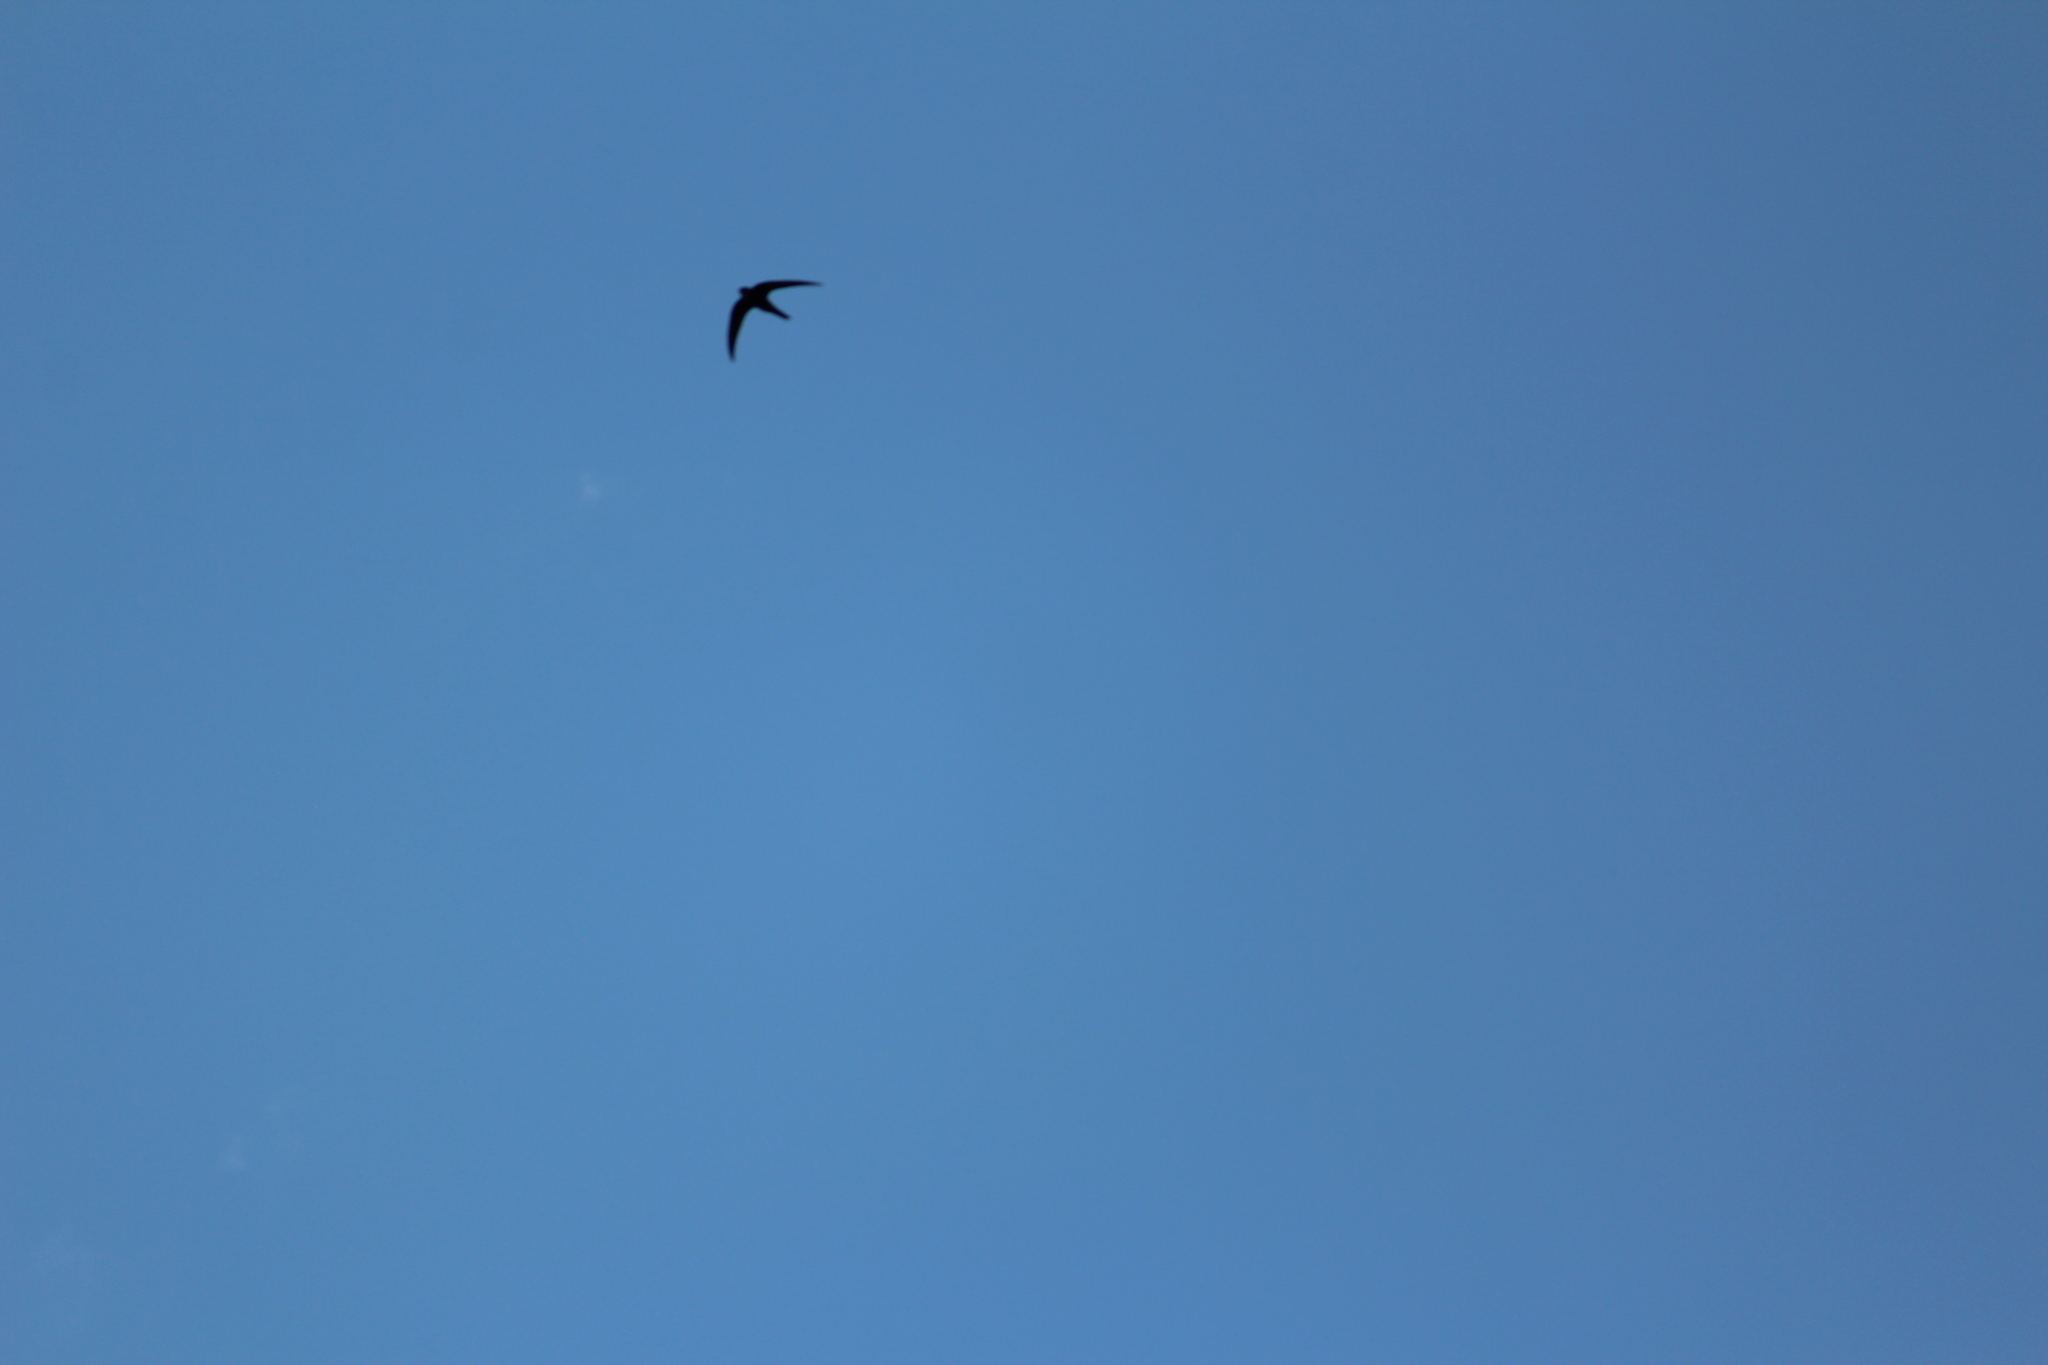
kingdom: Animalia
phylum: Chordata
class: Aves
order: Apodiformes
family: Apodidae
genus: Apus
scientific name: Apus pacificus
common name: Pacific swift
